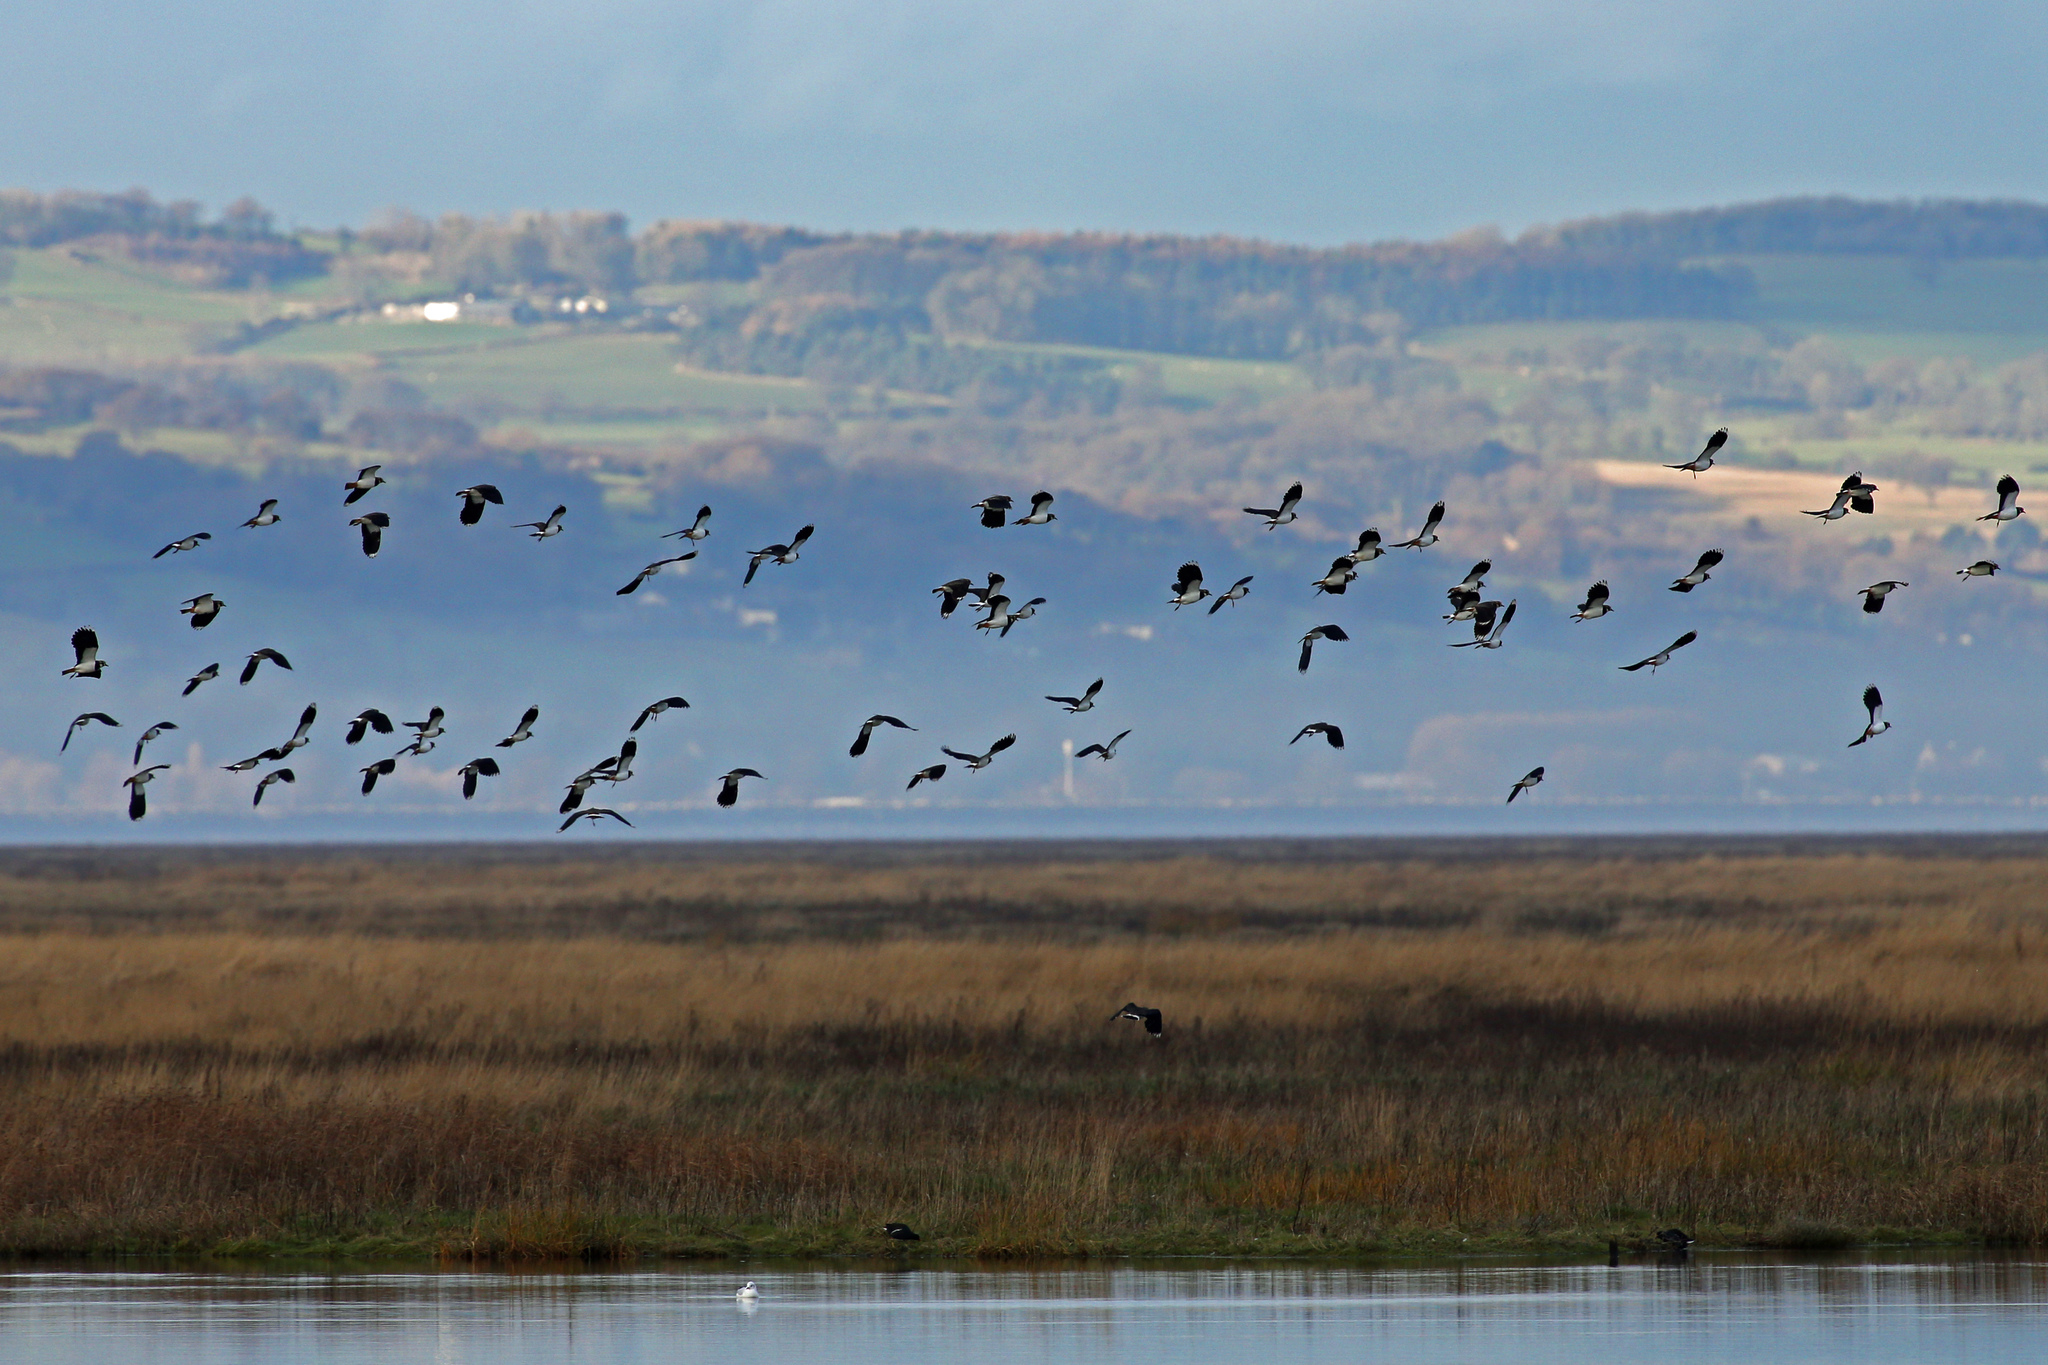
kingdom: Animalia
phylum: Chordata
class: Aves
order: Charadriiformes
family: Charadriidae
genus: Vanellus
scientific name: Vanellus vanellus
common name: Northern lapwing
